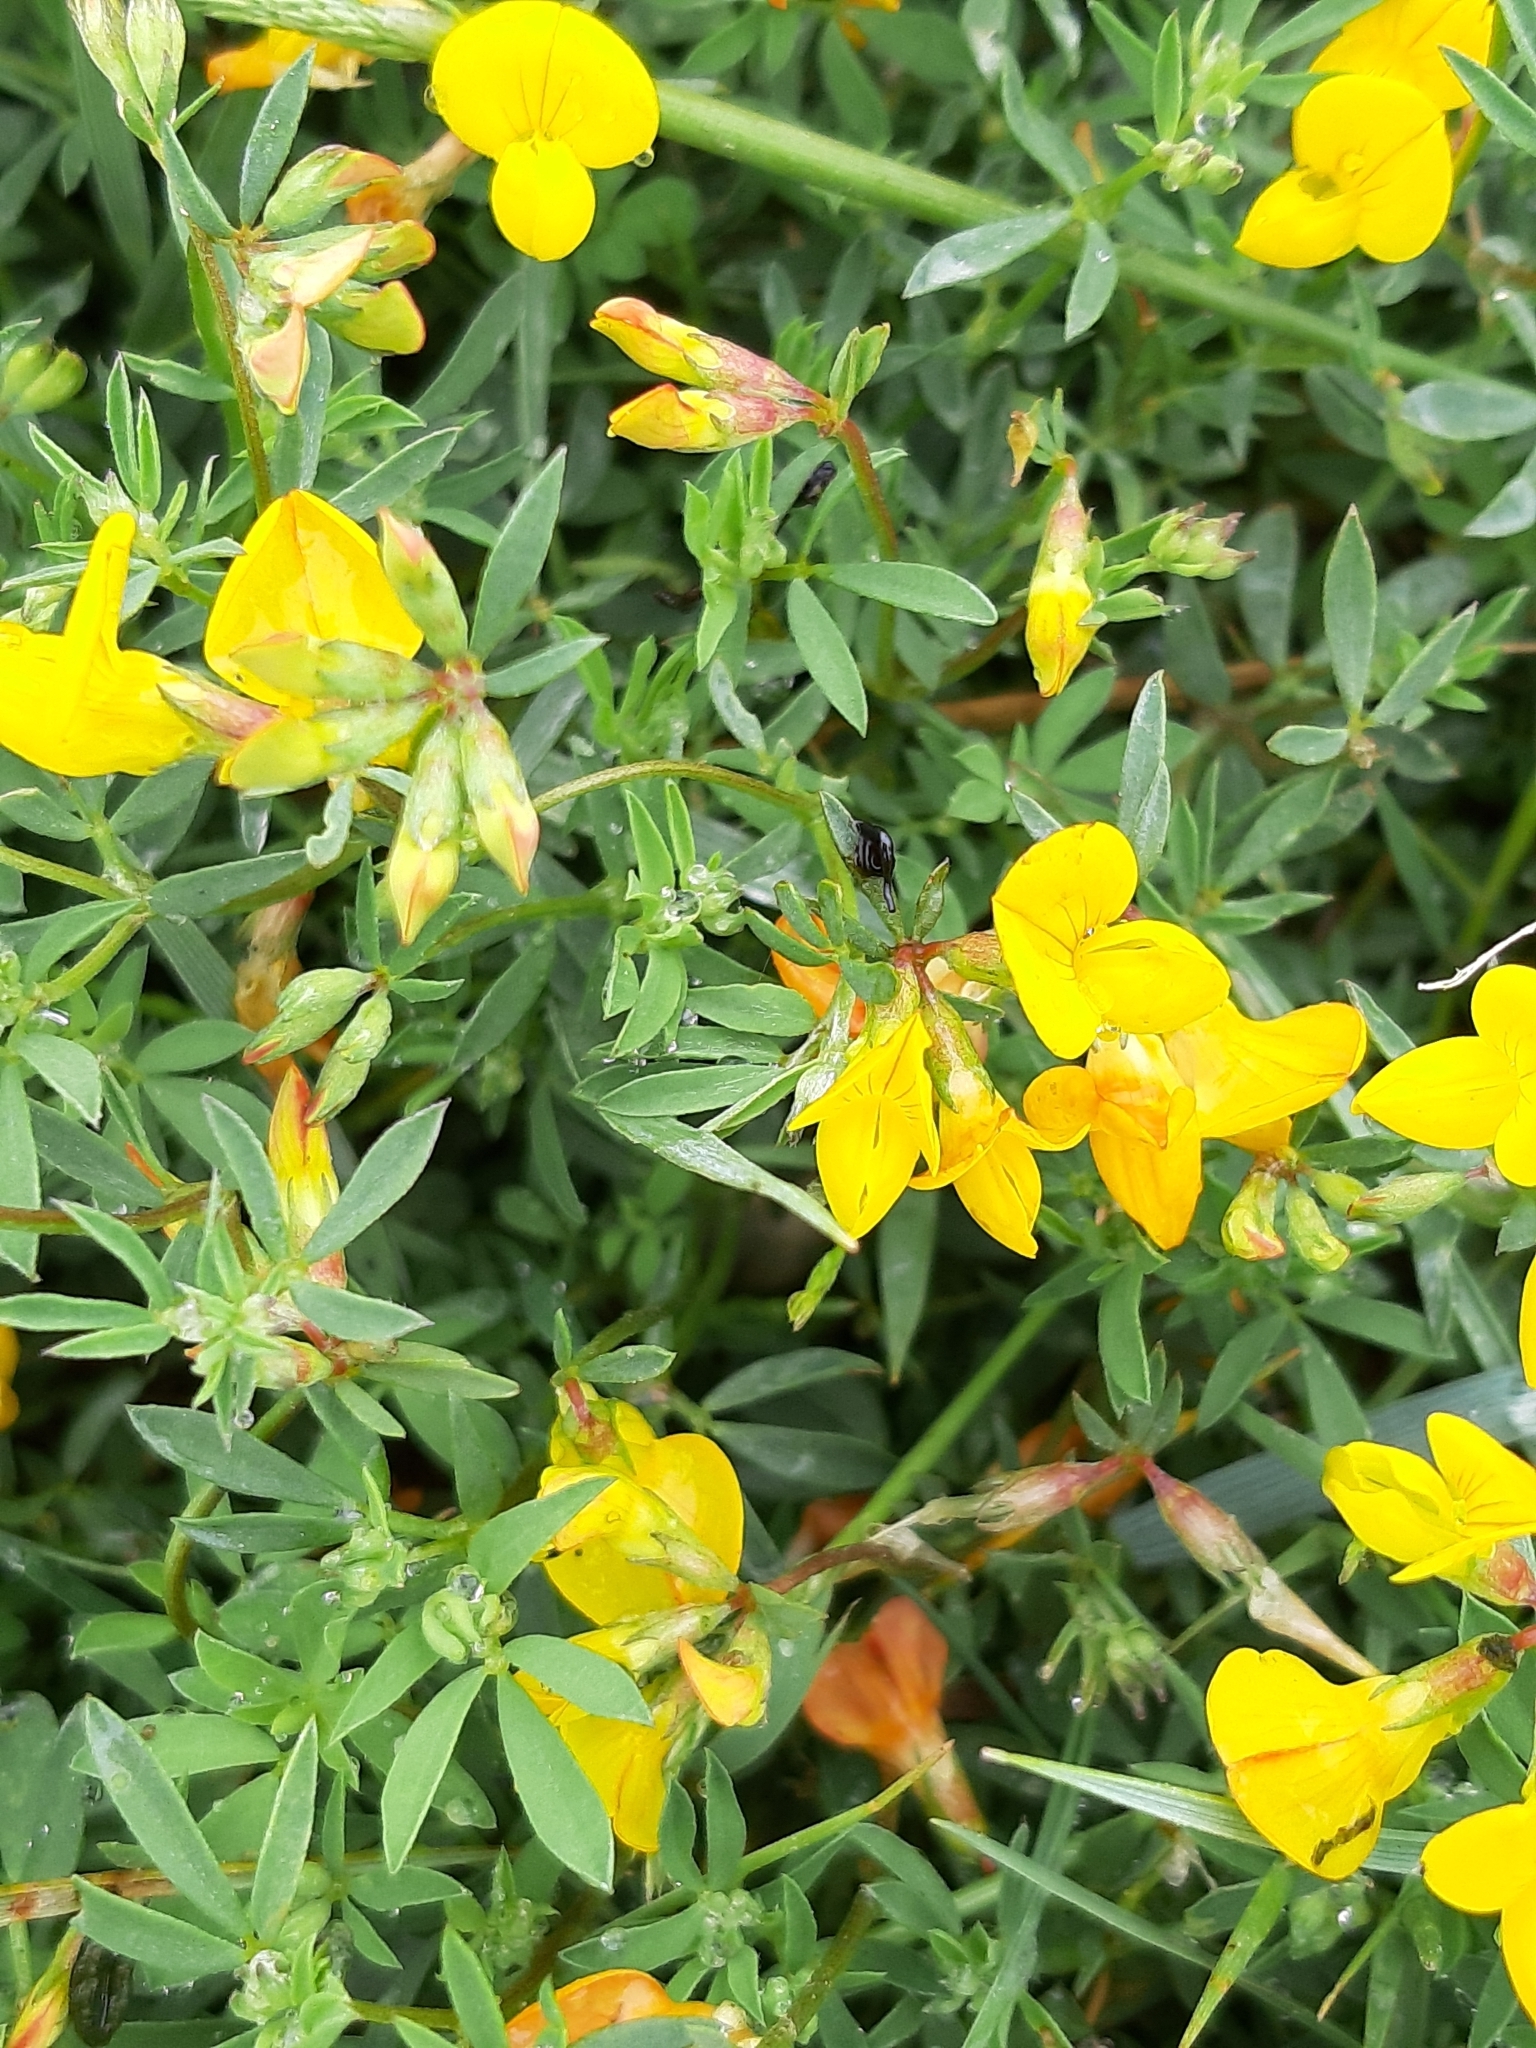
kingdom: Plantae
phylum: Tracheophyta
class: Magnoliopsida
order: Fabales
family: Fabaceae
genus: Lotus
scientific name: Lotus corniculatus
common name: Common bird's-foot-trefoil
